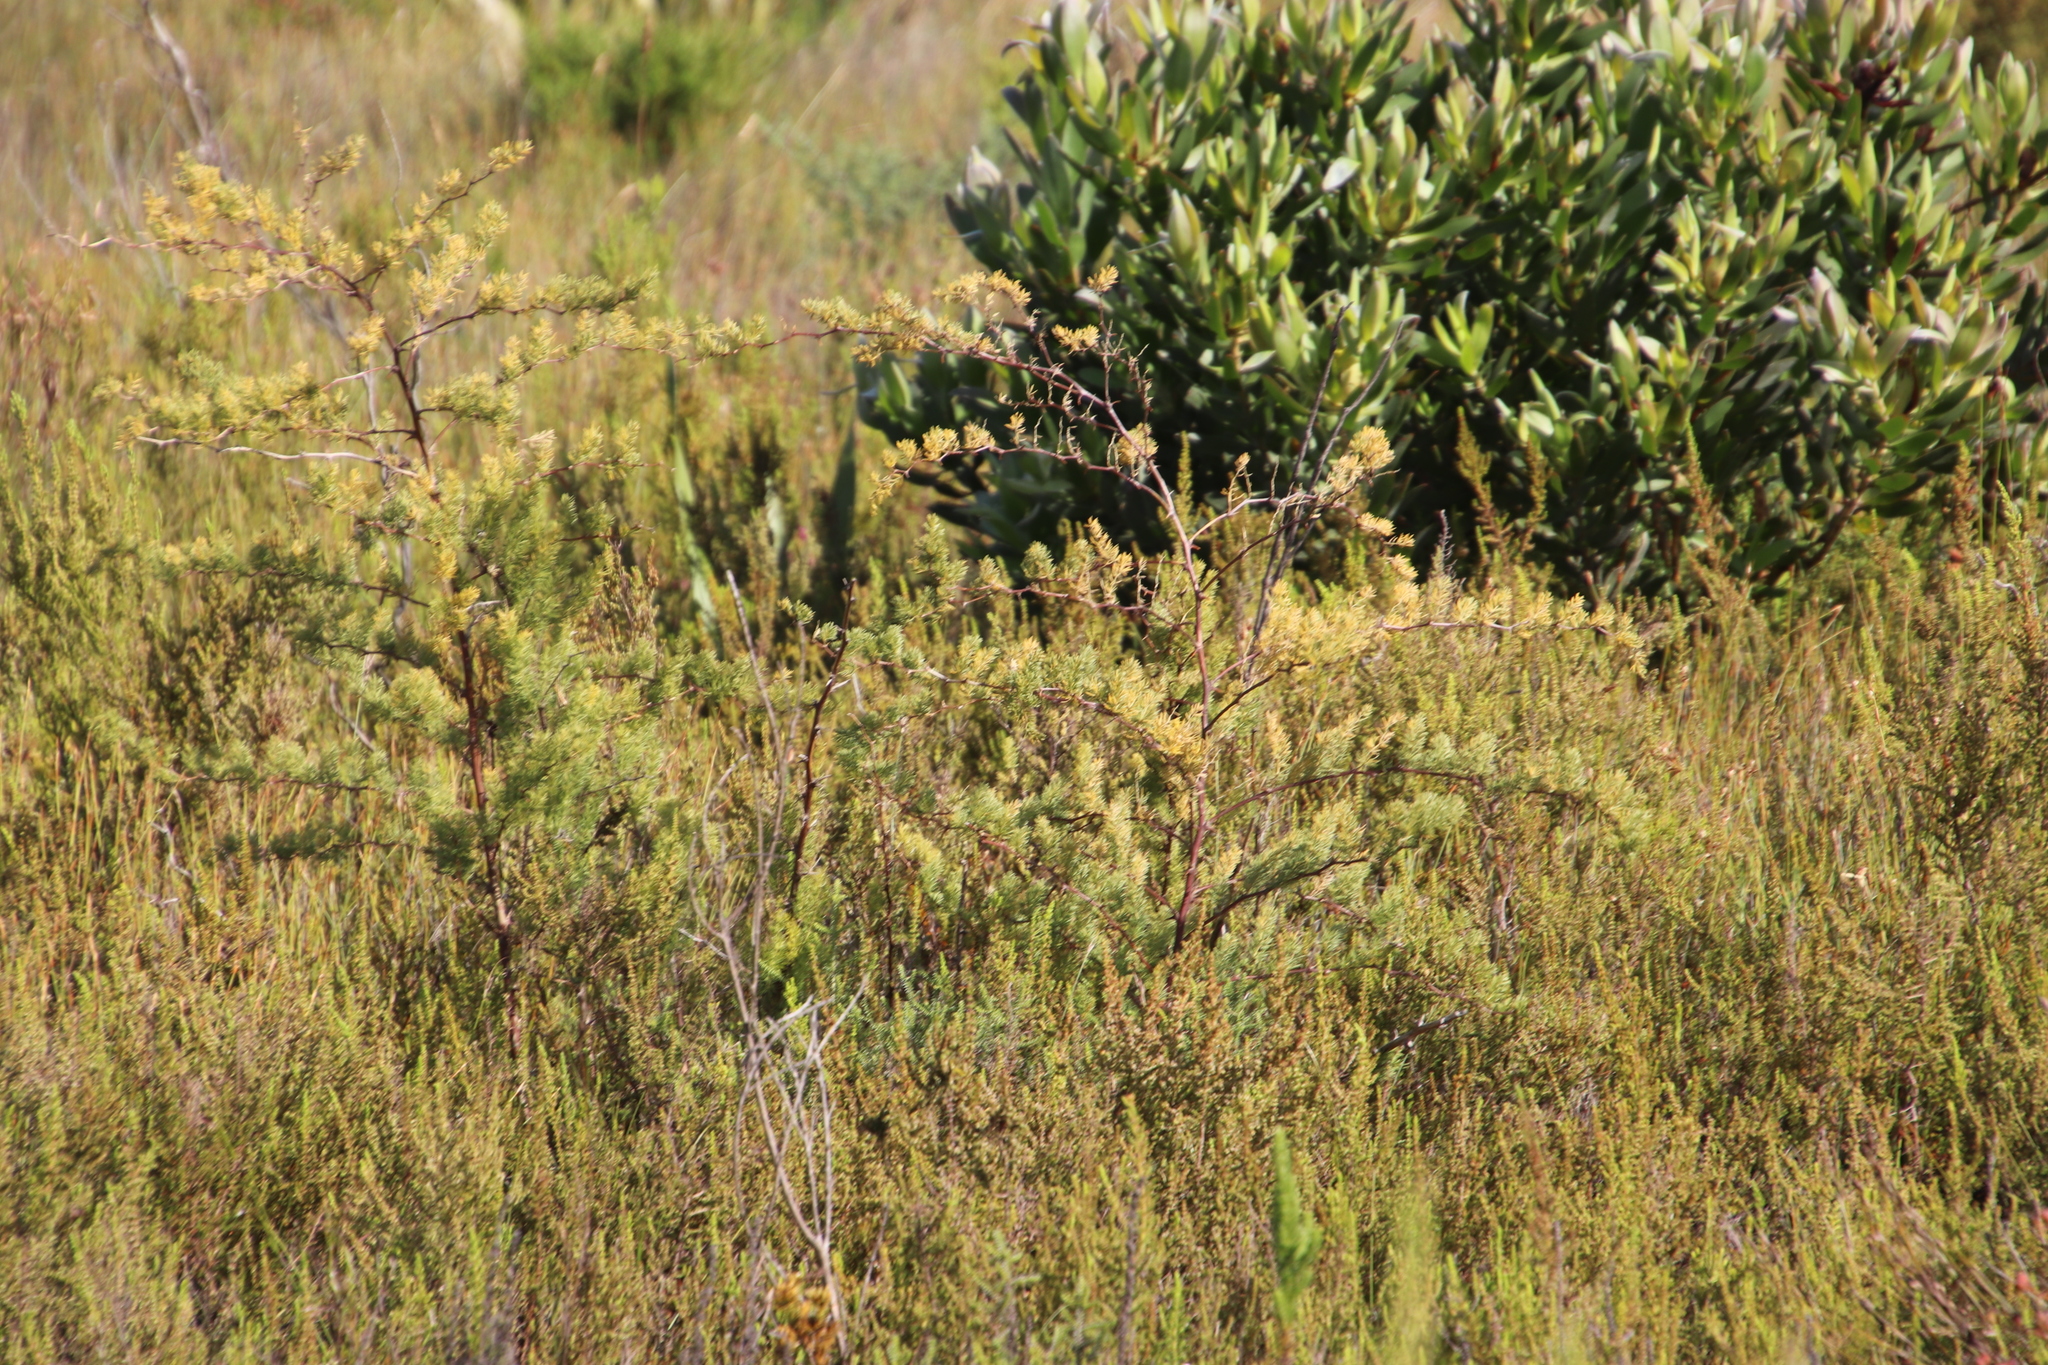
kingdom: Plantae
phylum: Tracheophyta
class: Liliopsida
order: Asparagales
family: Asparagaceae
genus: Asparagus
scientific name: Asparagus rubicundus
